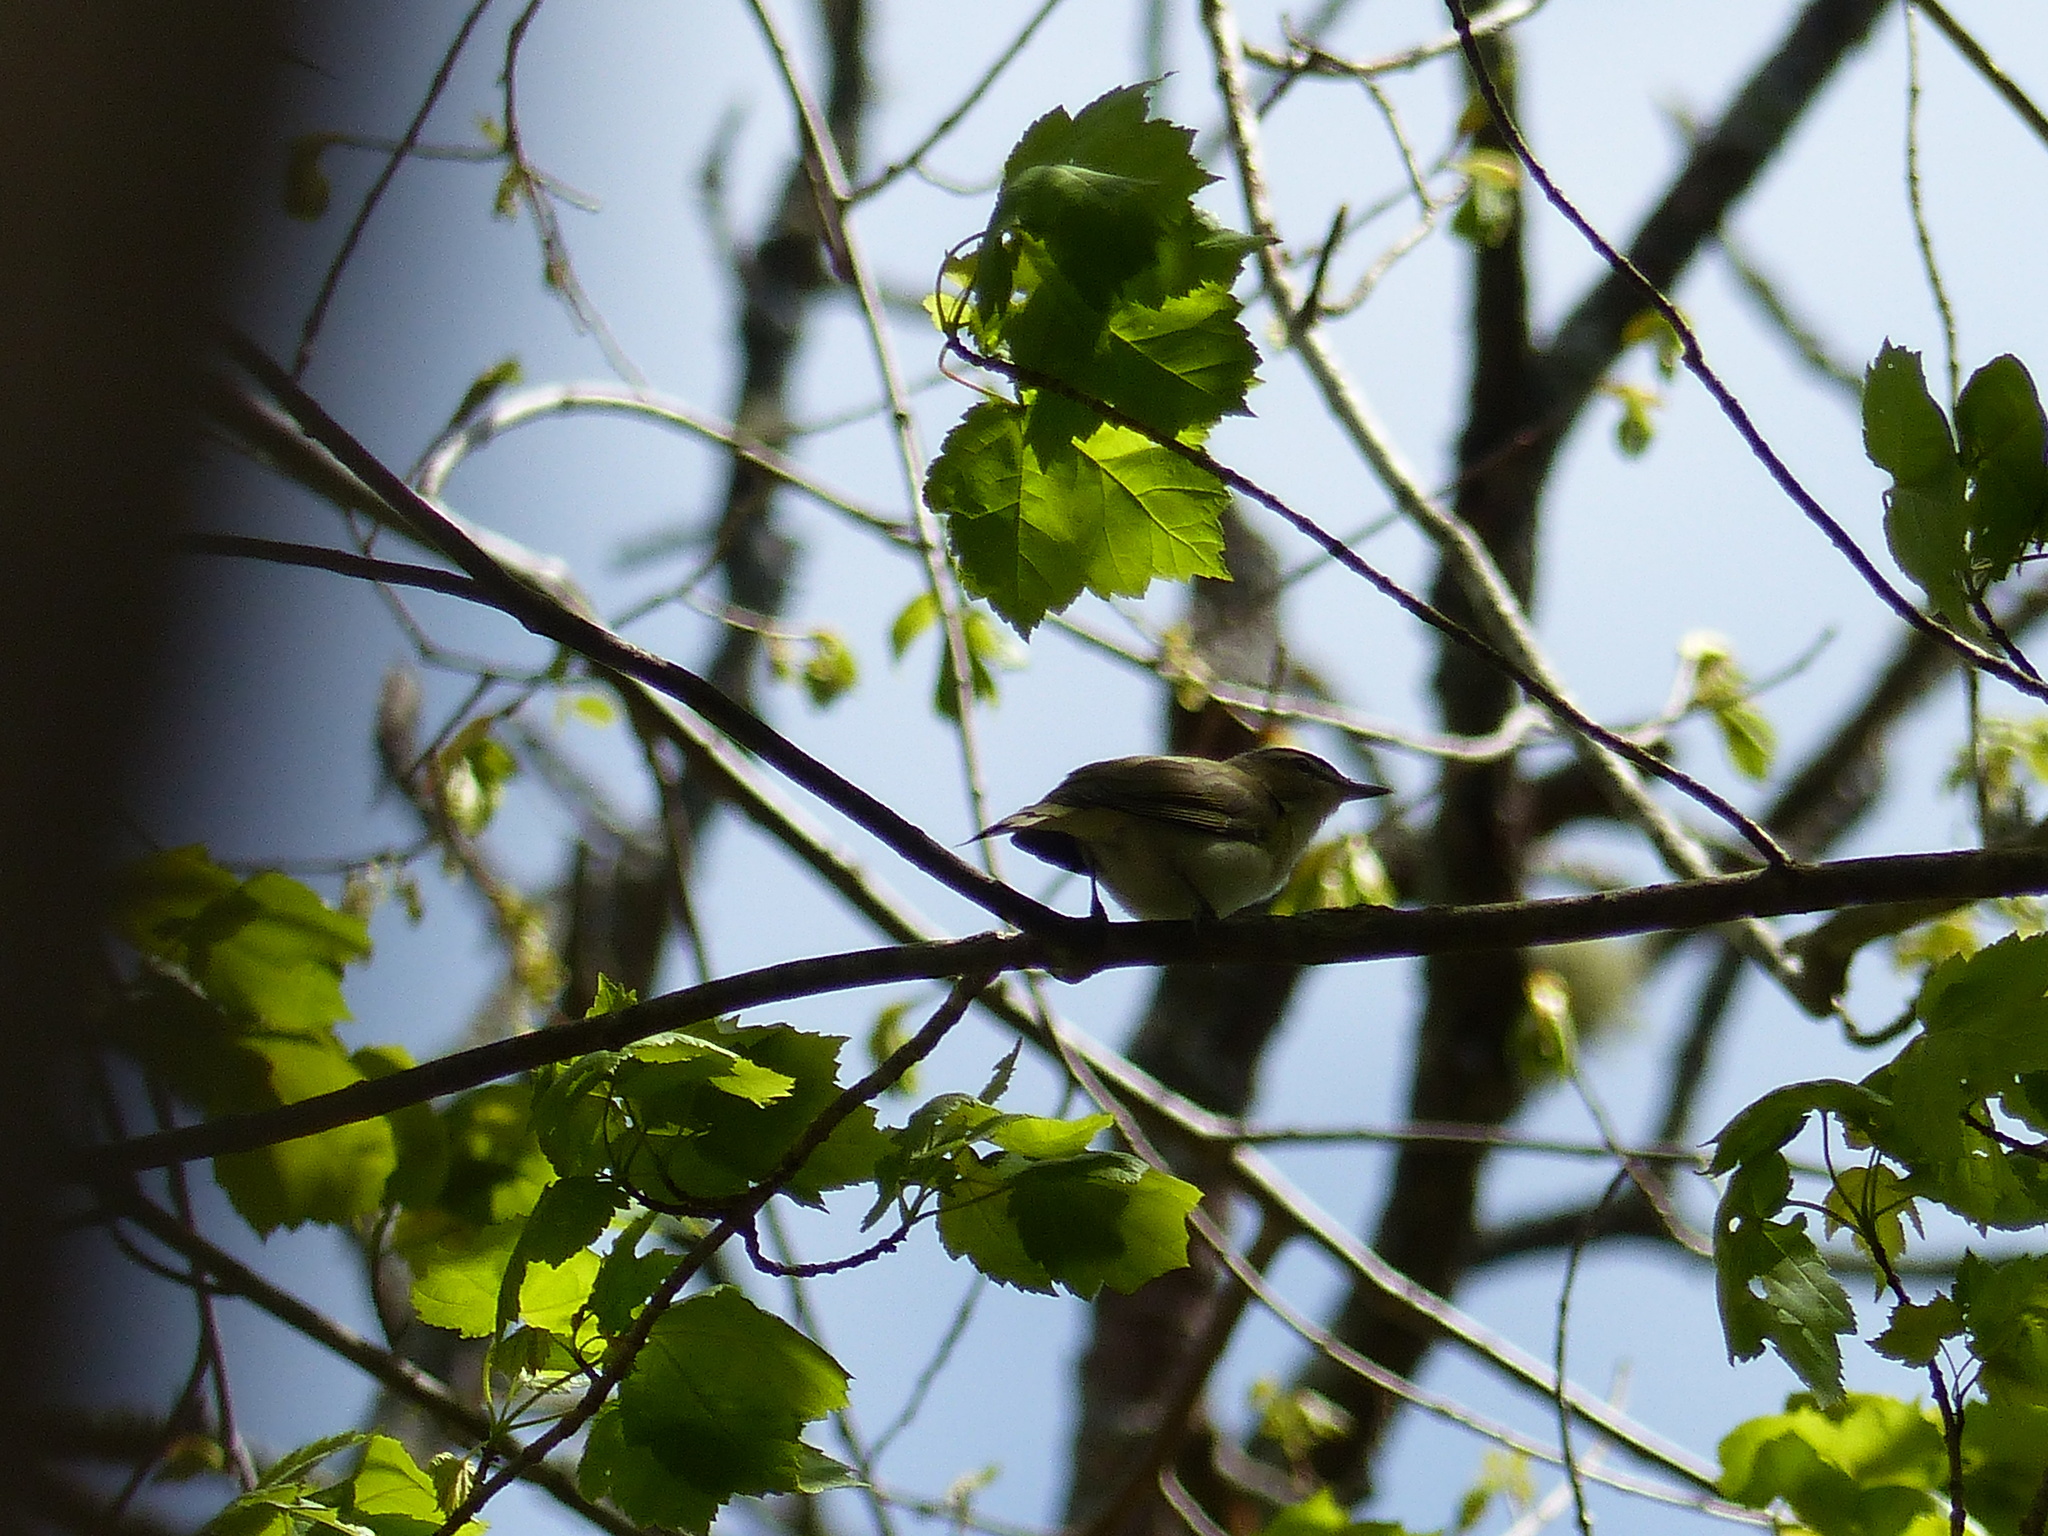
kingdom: Animalia
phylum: Chordata
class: Aves
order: Passeriformes
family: Vireonidae
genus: Vireo
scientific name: Vireo olivaceus
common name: Red-eyed vireo
